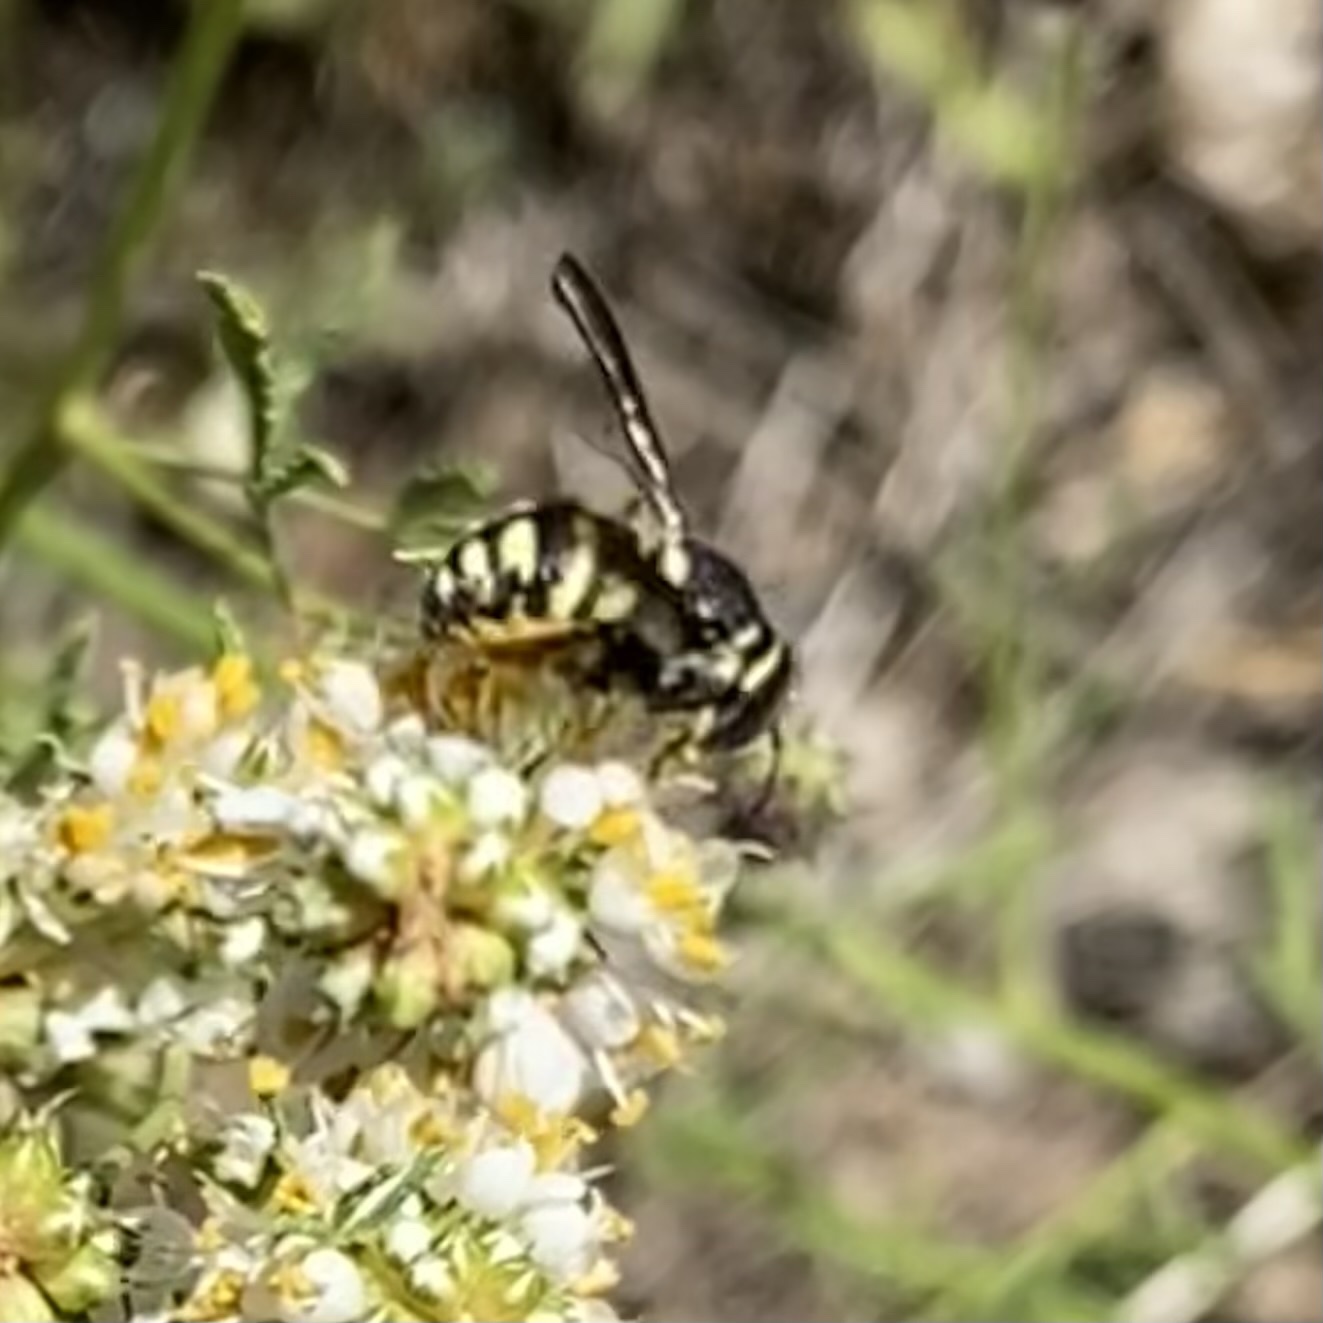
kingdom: Animalia
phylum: Arthropoda
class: Insecta
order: Hymenoptera
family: Megachilidae
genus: Anthidiellum
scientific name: Anthidiellum notatum
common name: Northern rotund-resin bee
